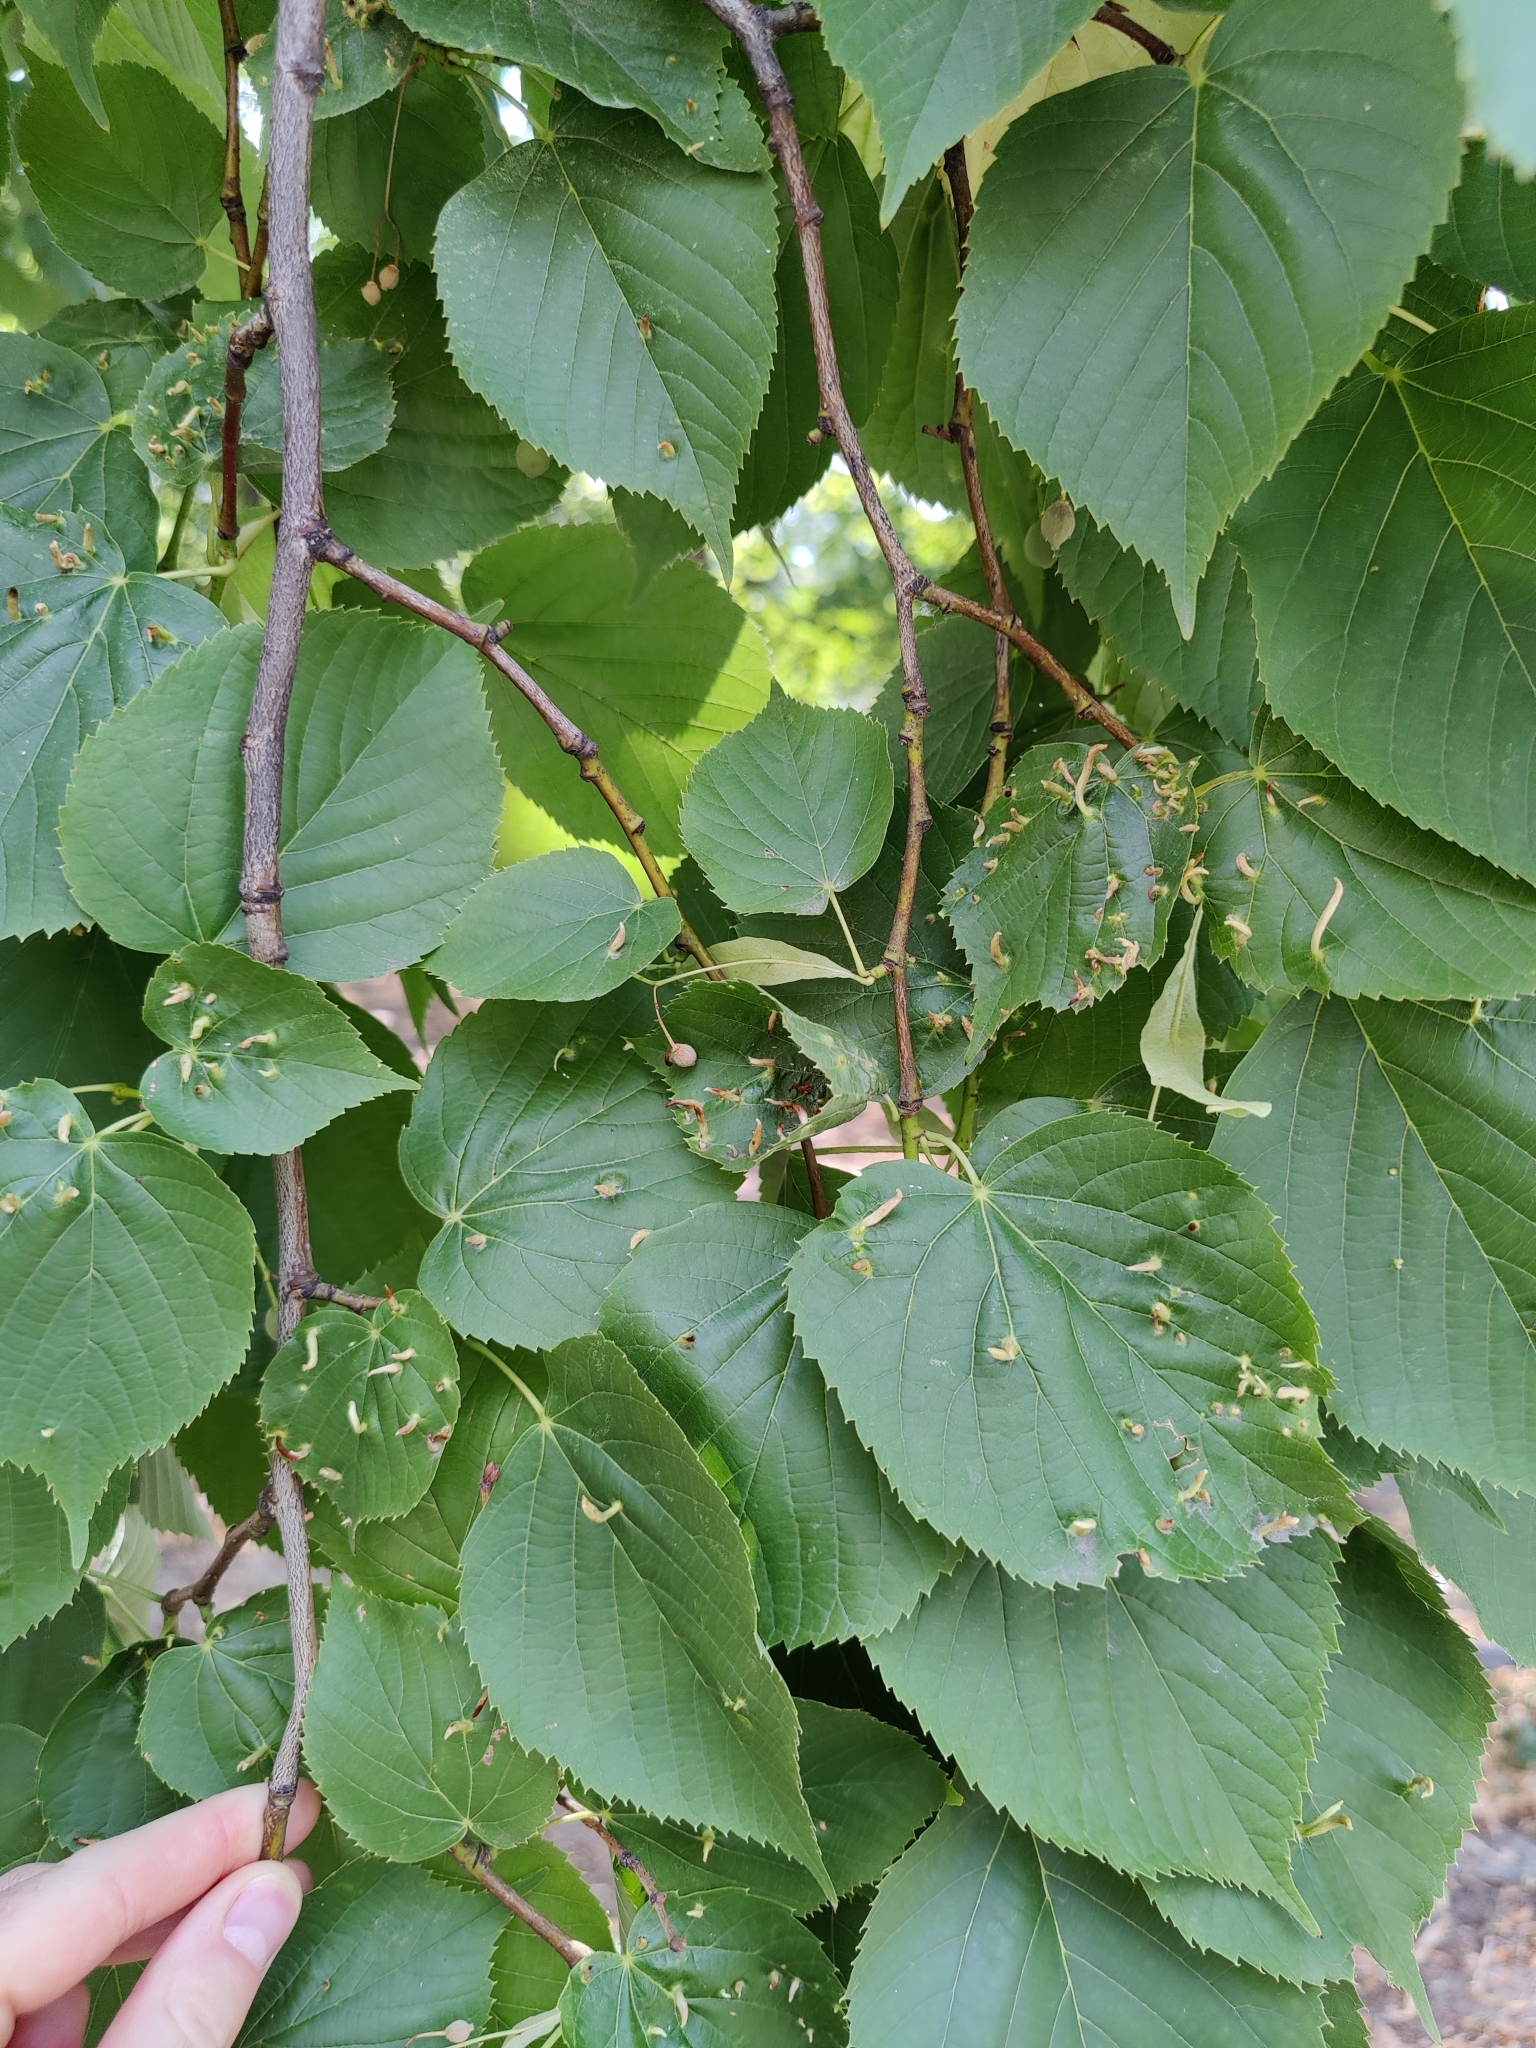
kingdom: Animalia
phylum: Arthropoda
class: Arachnida
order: Trombidiformes
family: Eriophyidae
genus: Eriophyes
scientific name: Eriophyes tiliae
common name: Red nail gall mite
